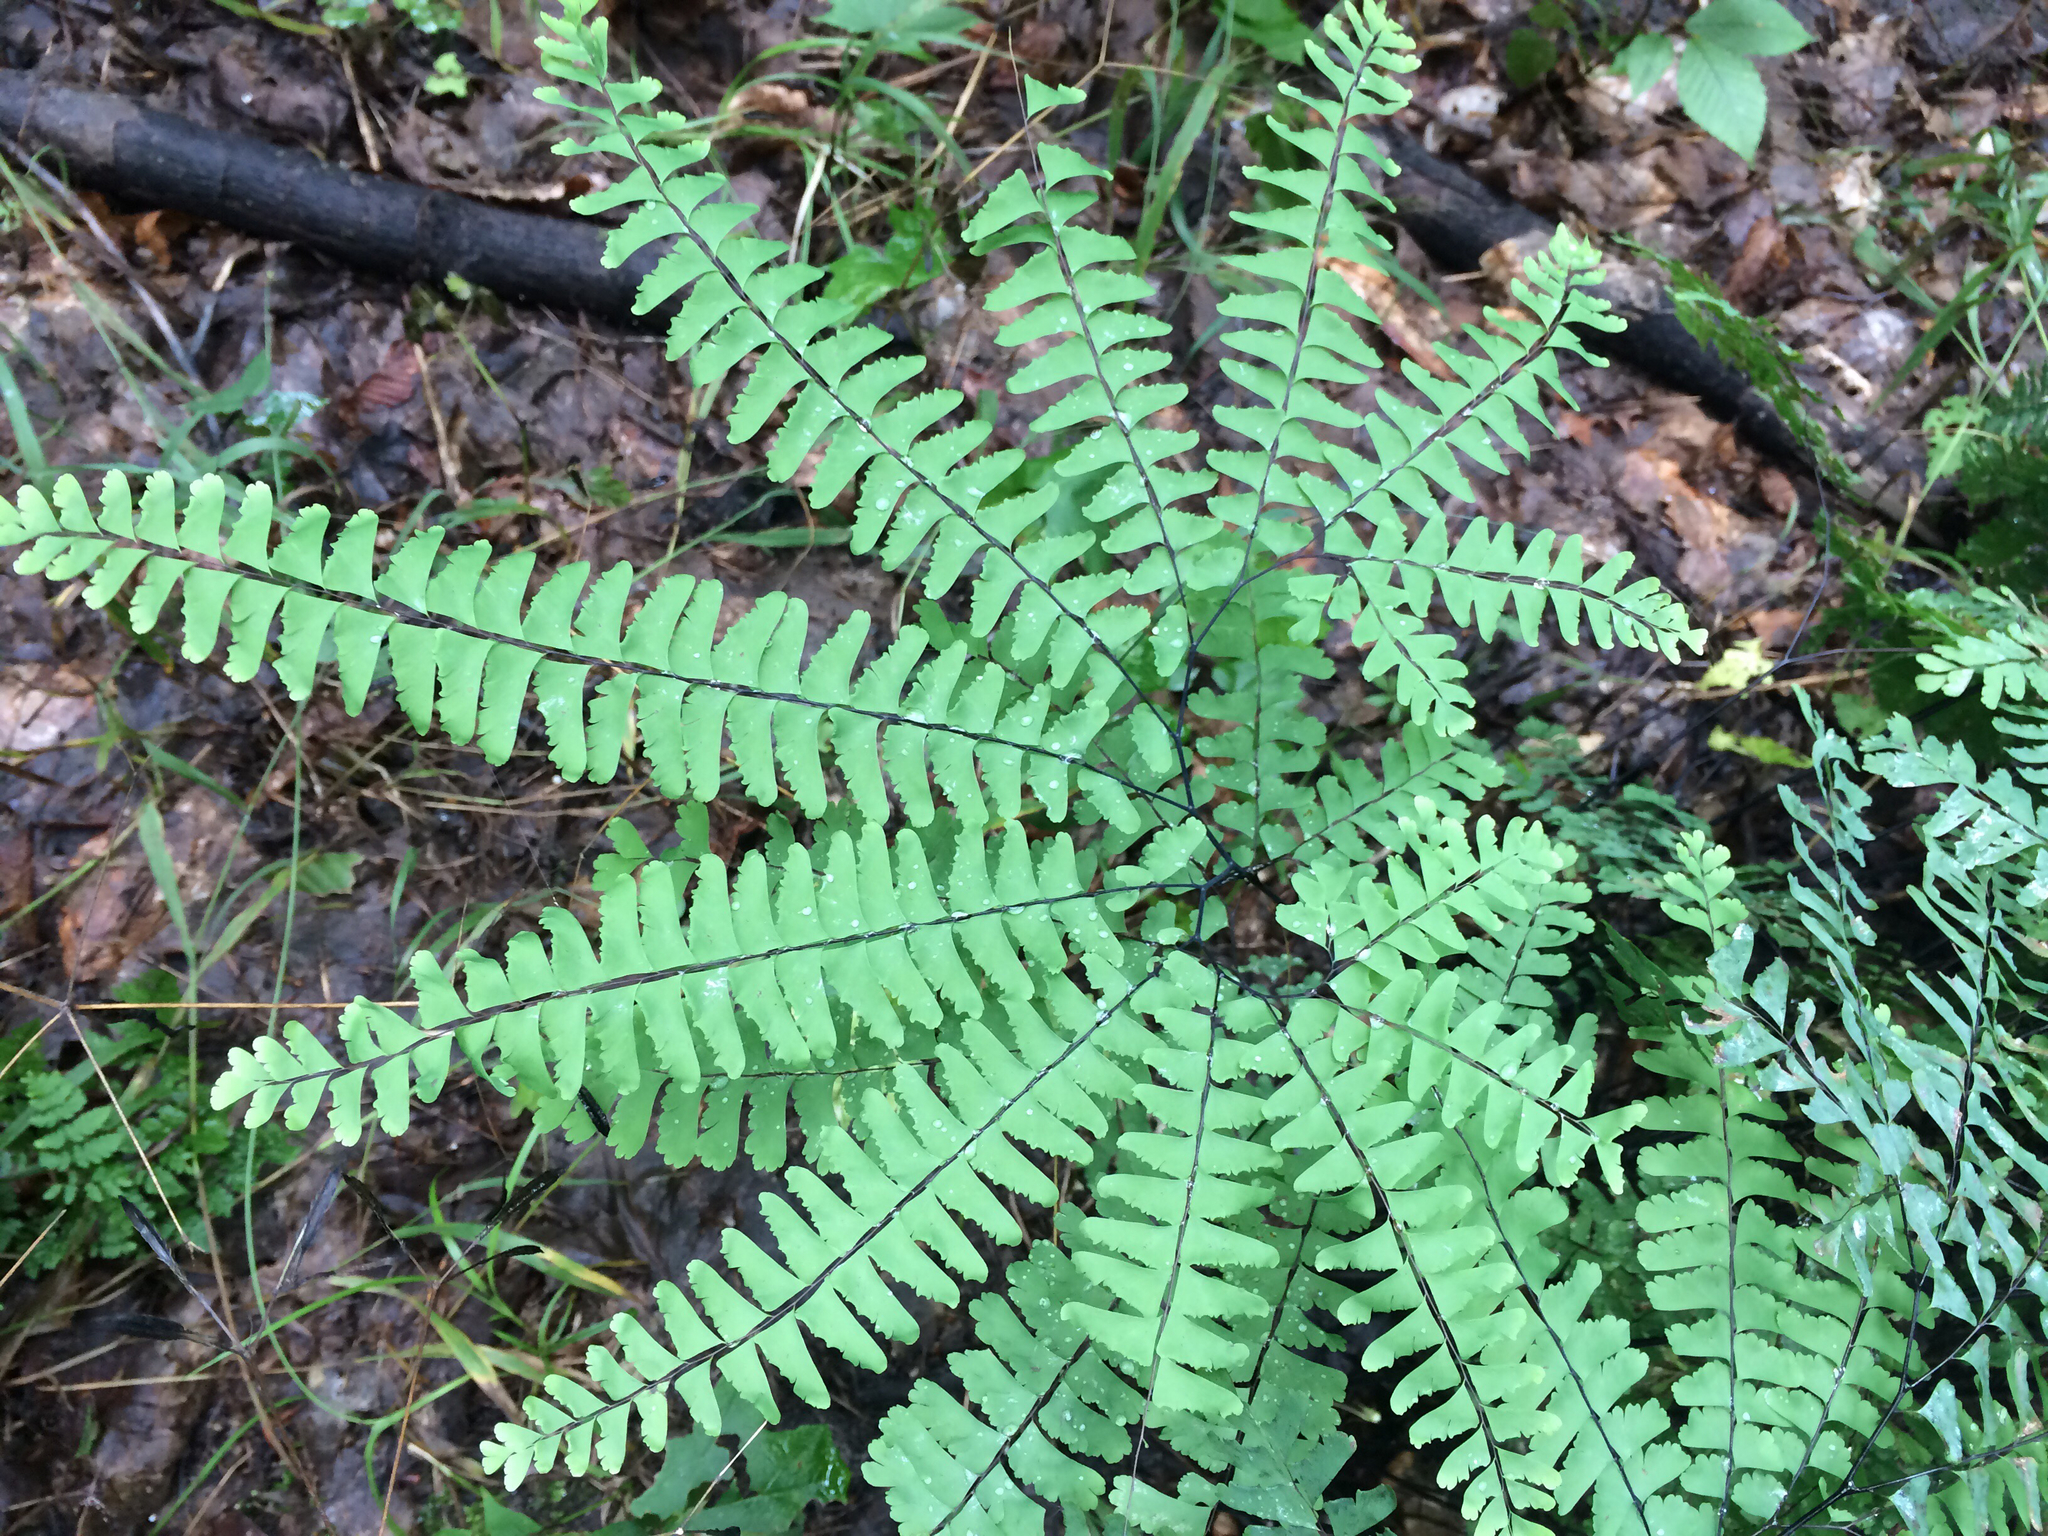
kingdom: Plantae
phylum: Tracheophyta
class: Polypodiopsida
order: Polypodiales
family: Pteridaceae
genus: Adiantum
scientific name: Adiantum pedatum
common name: Five-finger fern
